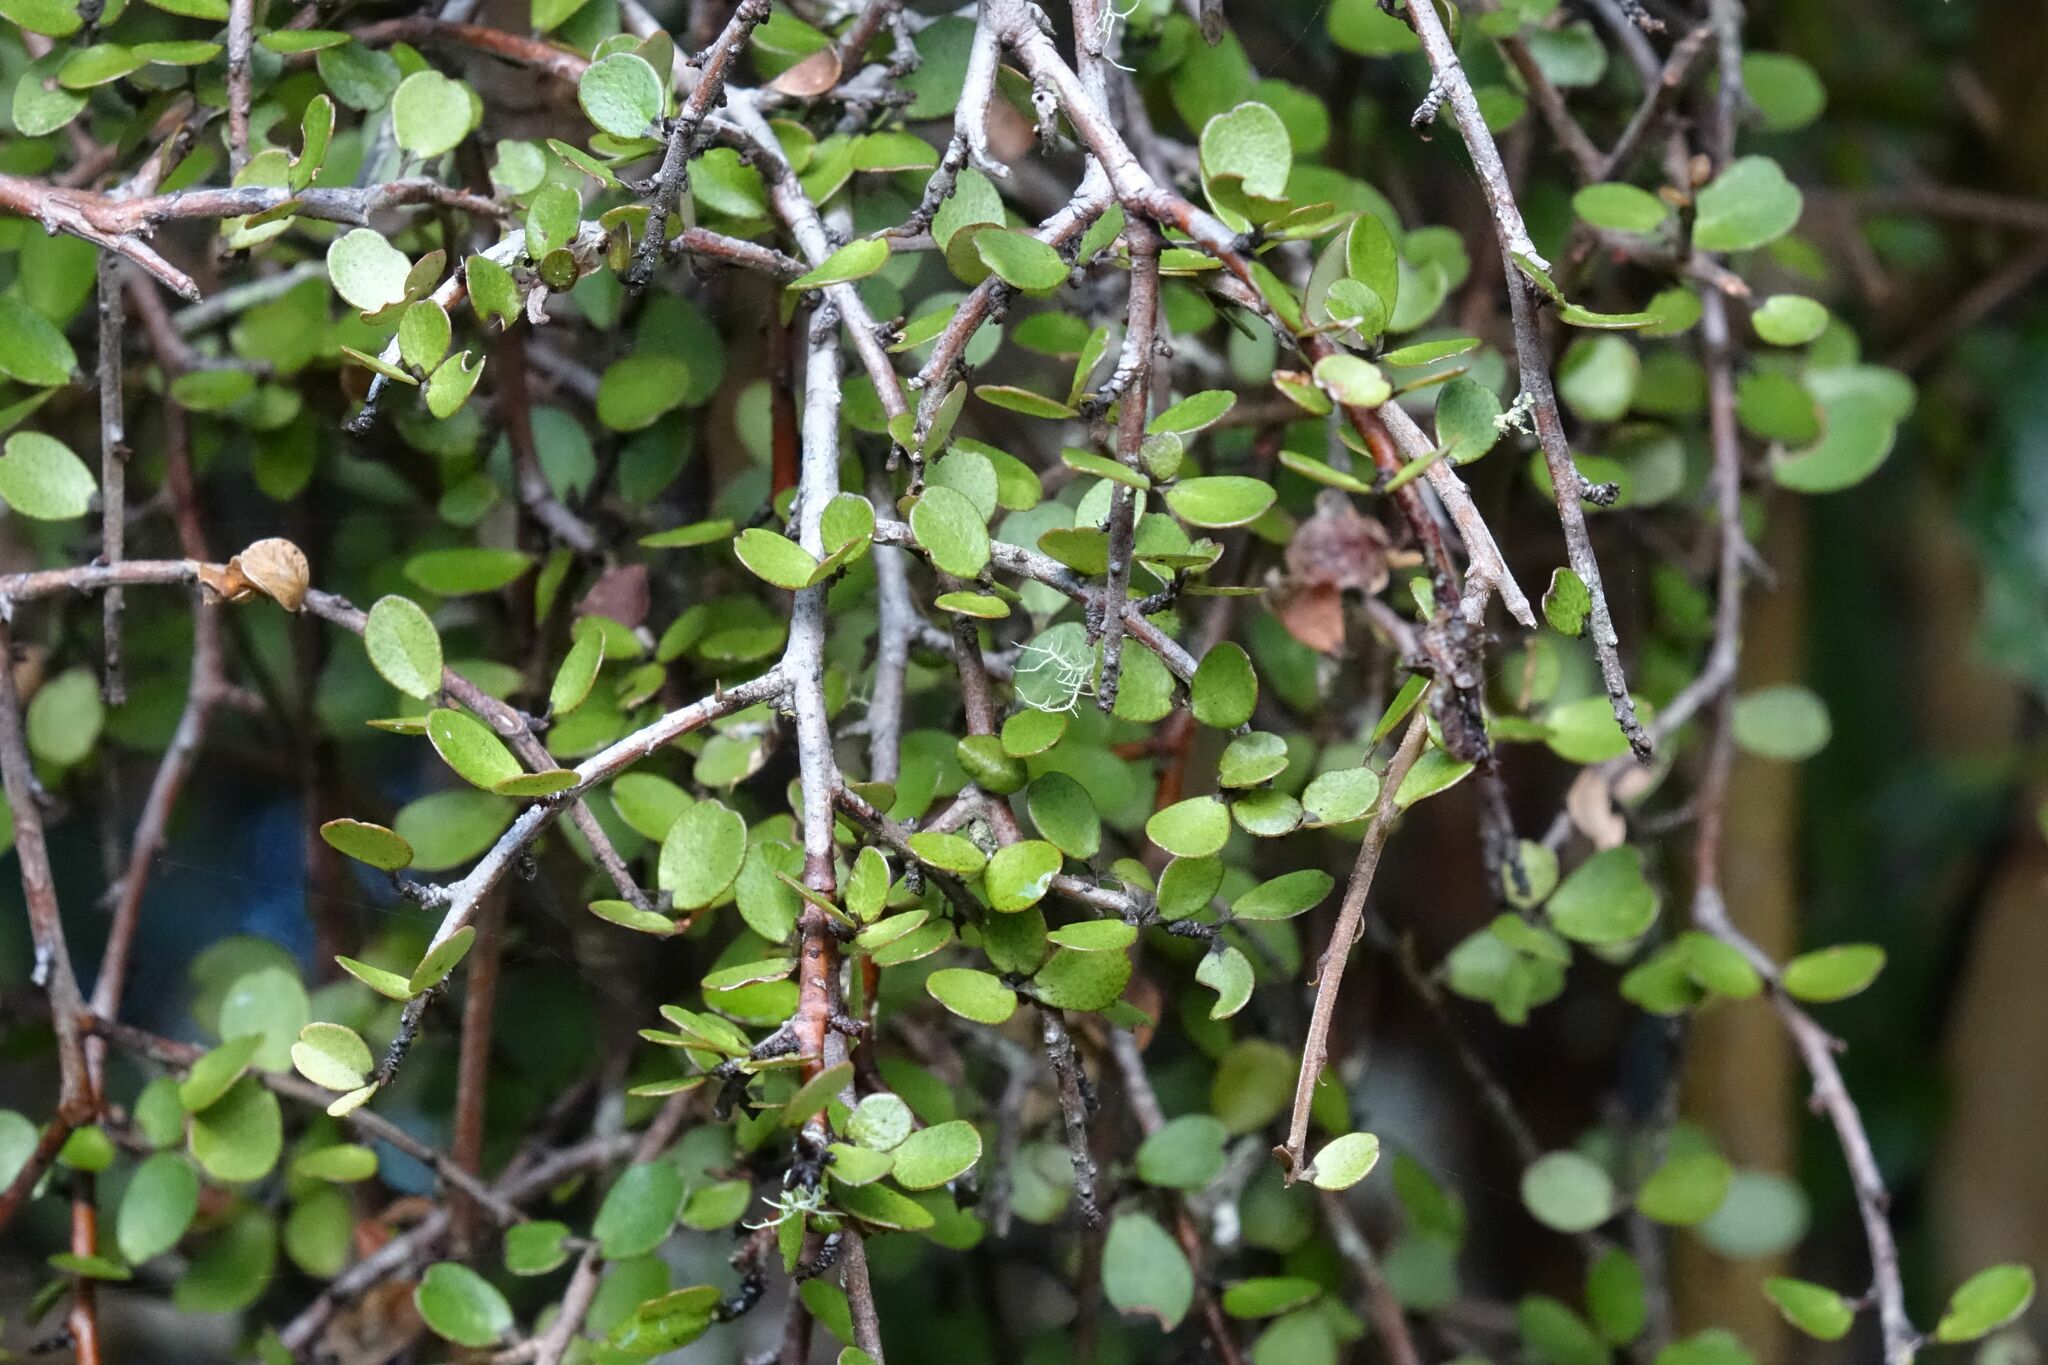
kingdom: Plantae
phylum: Tracheophyta
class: Magnoliopsida
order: Ericales
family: Primulaceae
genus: Myrsine
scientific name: Myrsine divaricata
